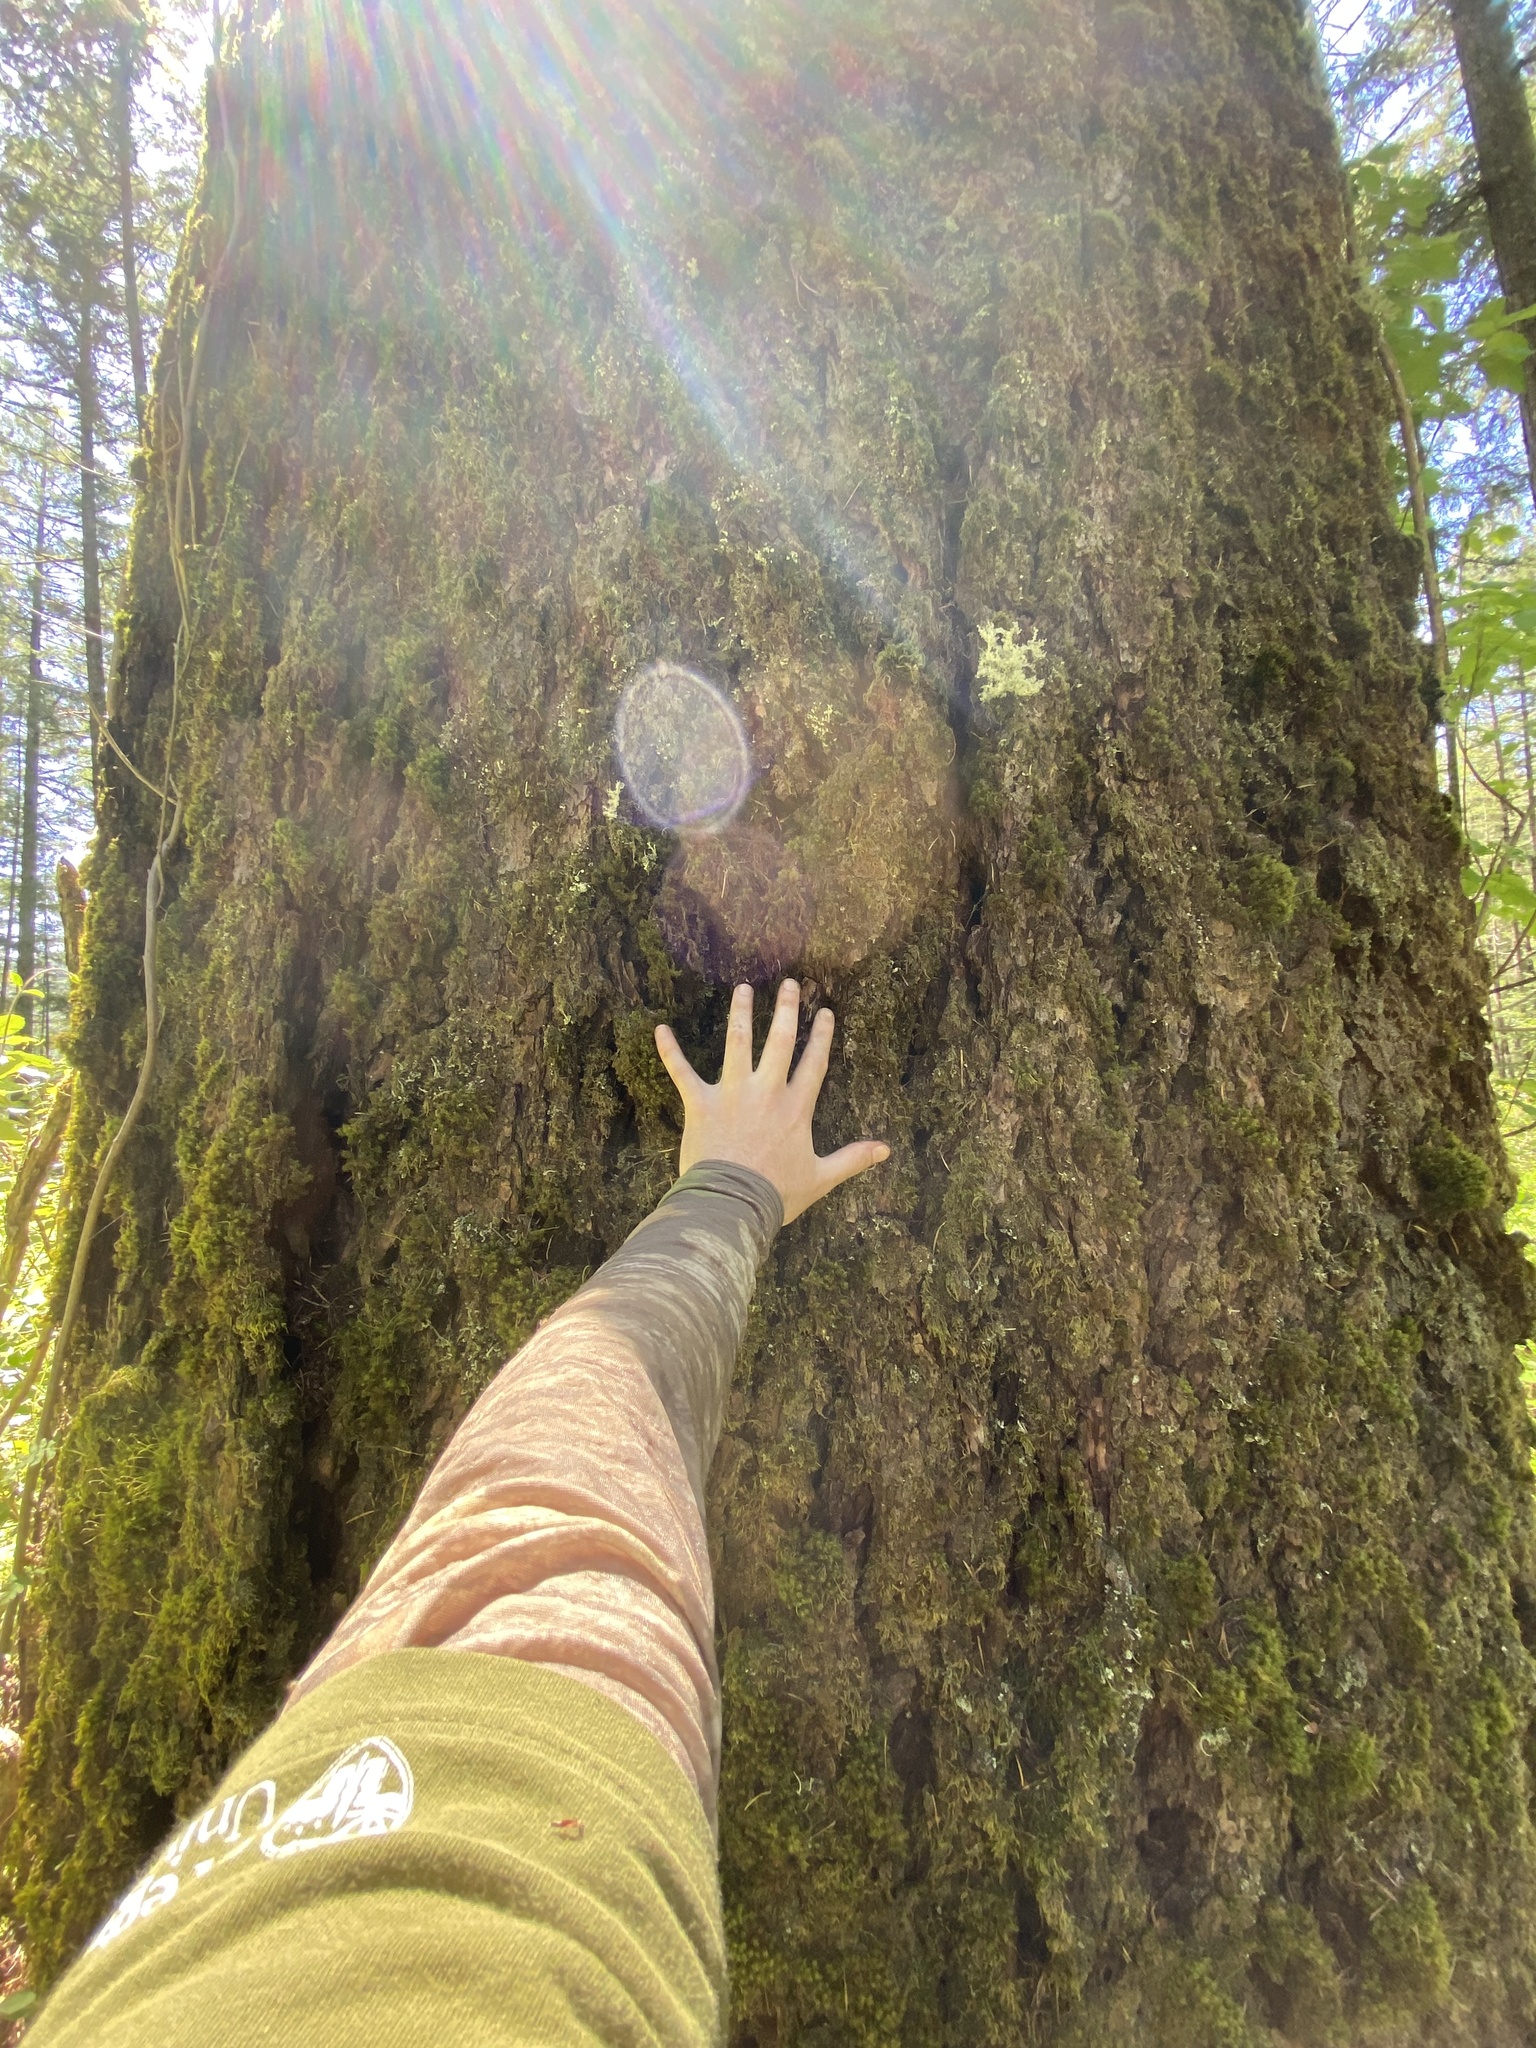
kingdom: Plantae
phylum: Tracheophyta
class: Pinopsida
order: Pinales
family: Pinaceae
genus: Pseudotsuga
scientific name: Pseudotsuga menziesii
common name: Douglas fir
